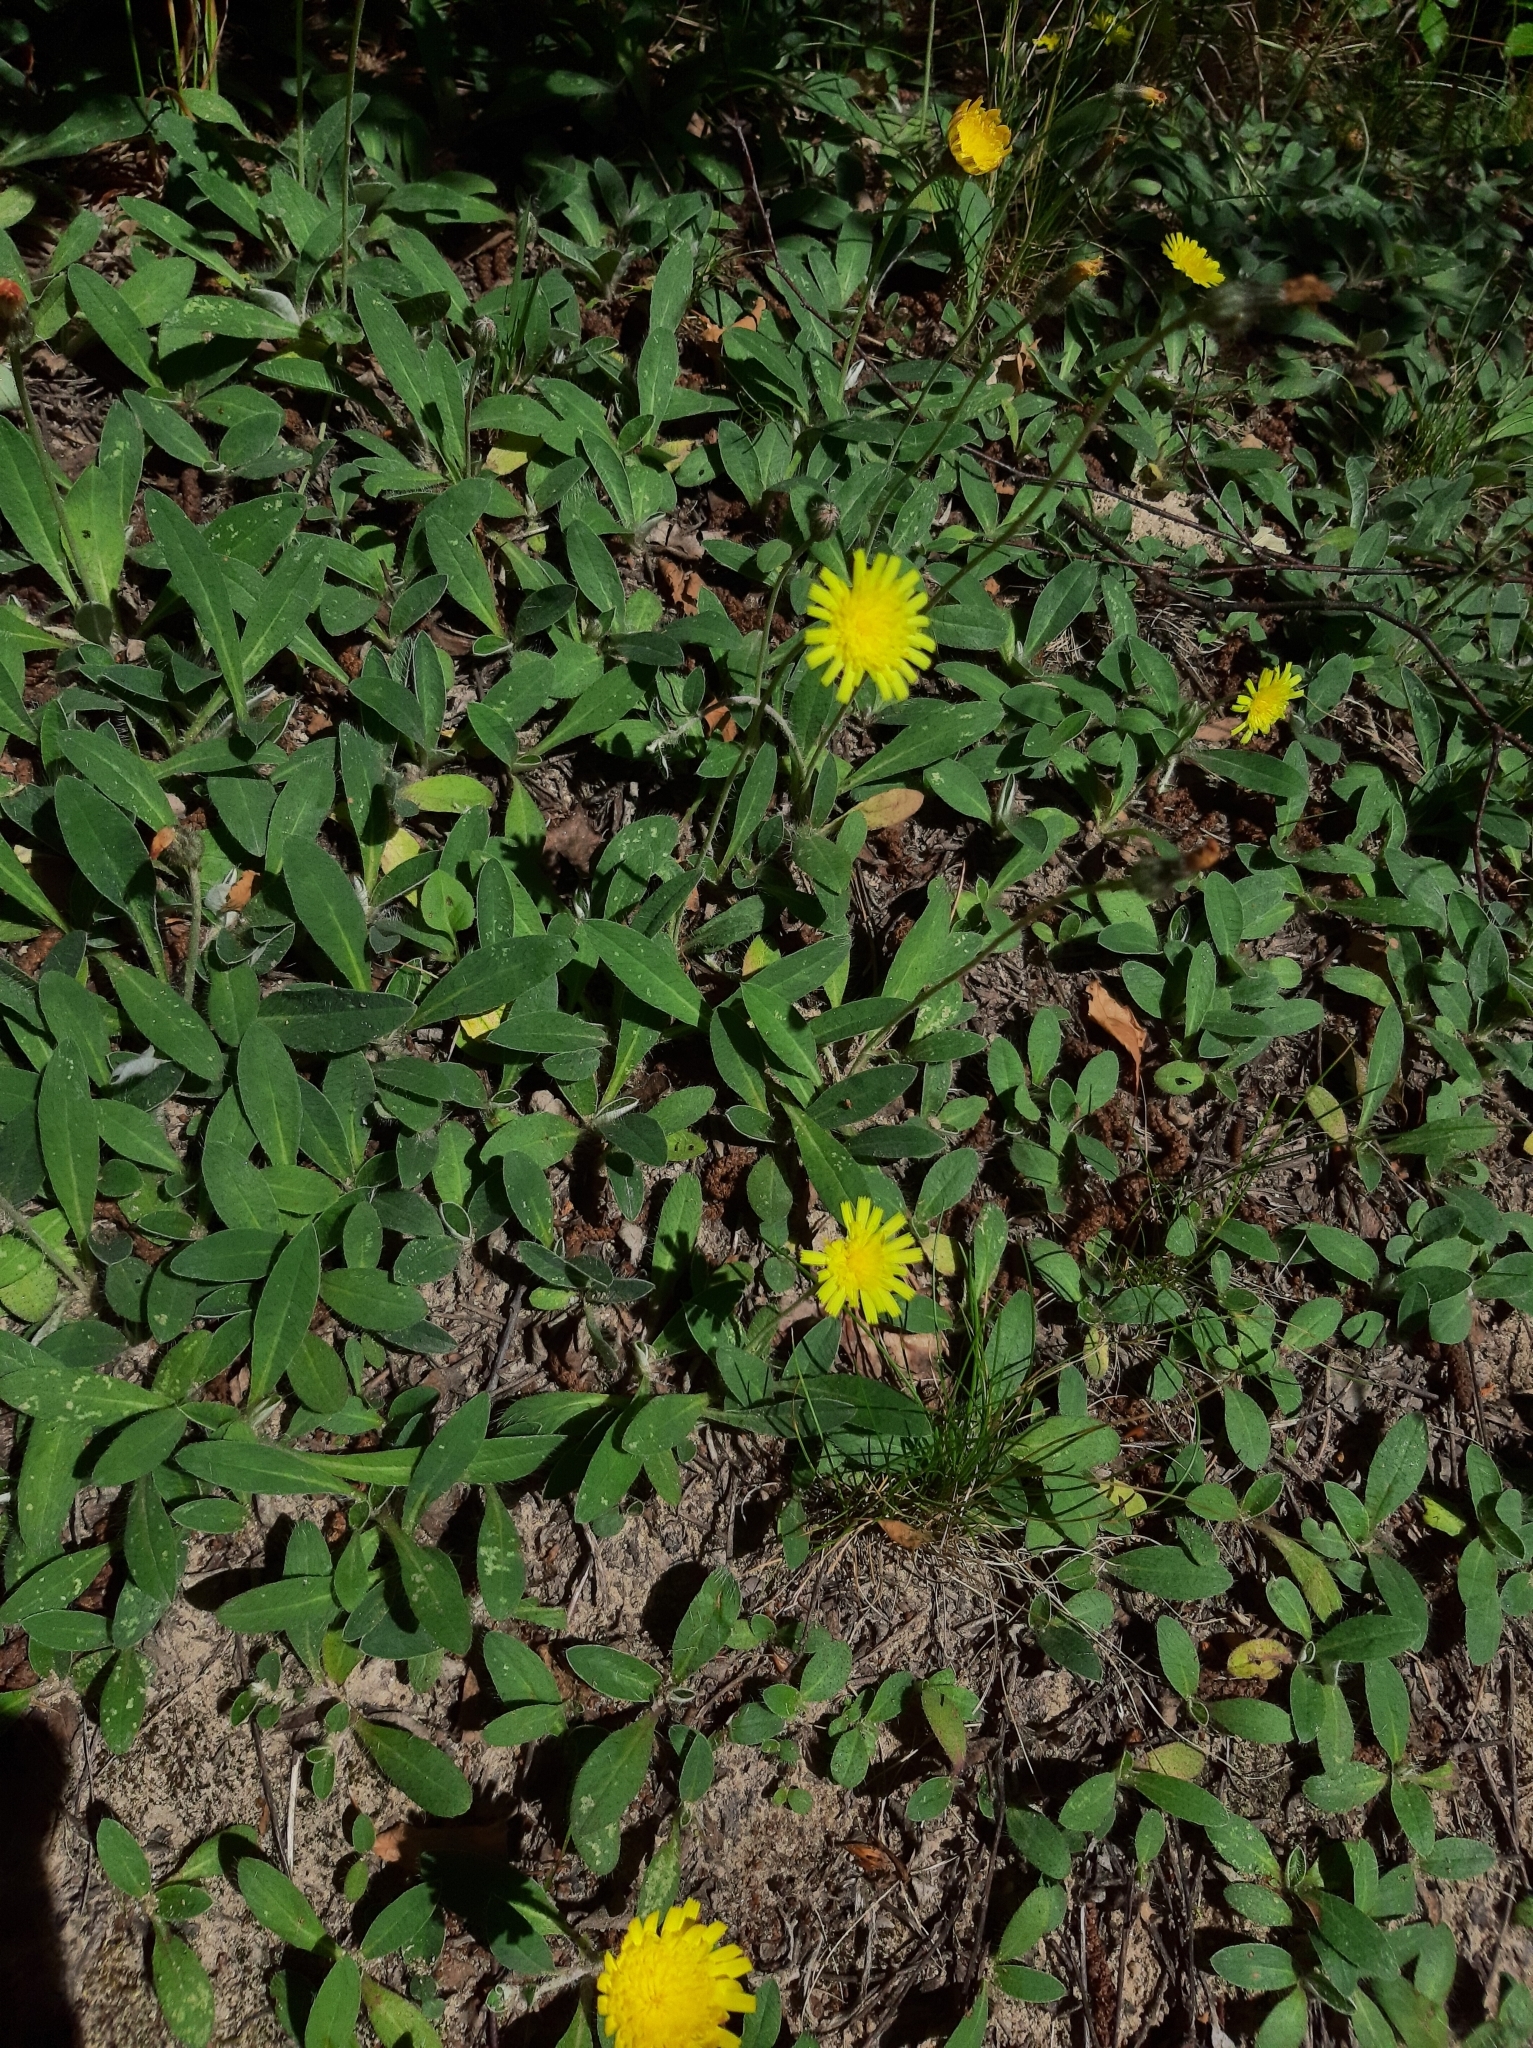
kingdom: Plantae
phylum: Tracheophyta
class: Magnoliopsida
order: Asterales
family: Asteraceae
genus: Pilosella
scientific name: Pilosella officinarum
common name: Mouse-ear hawkweed
